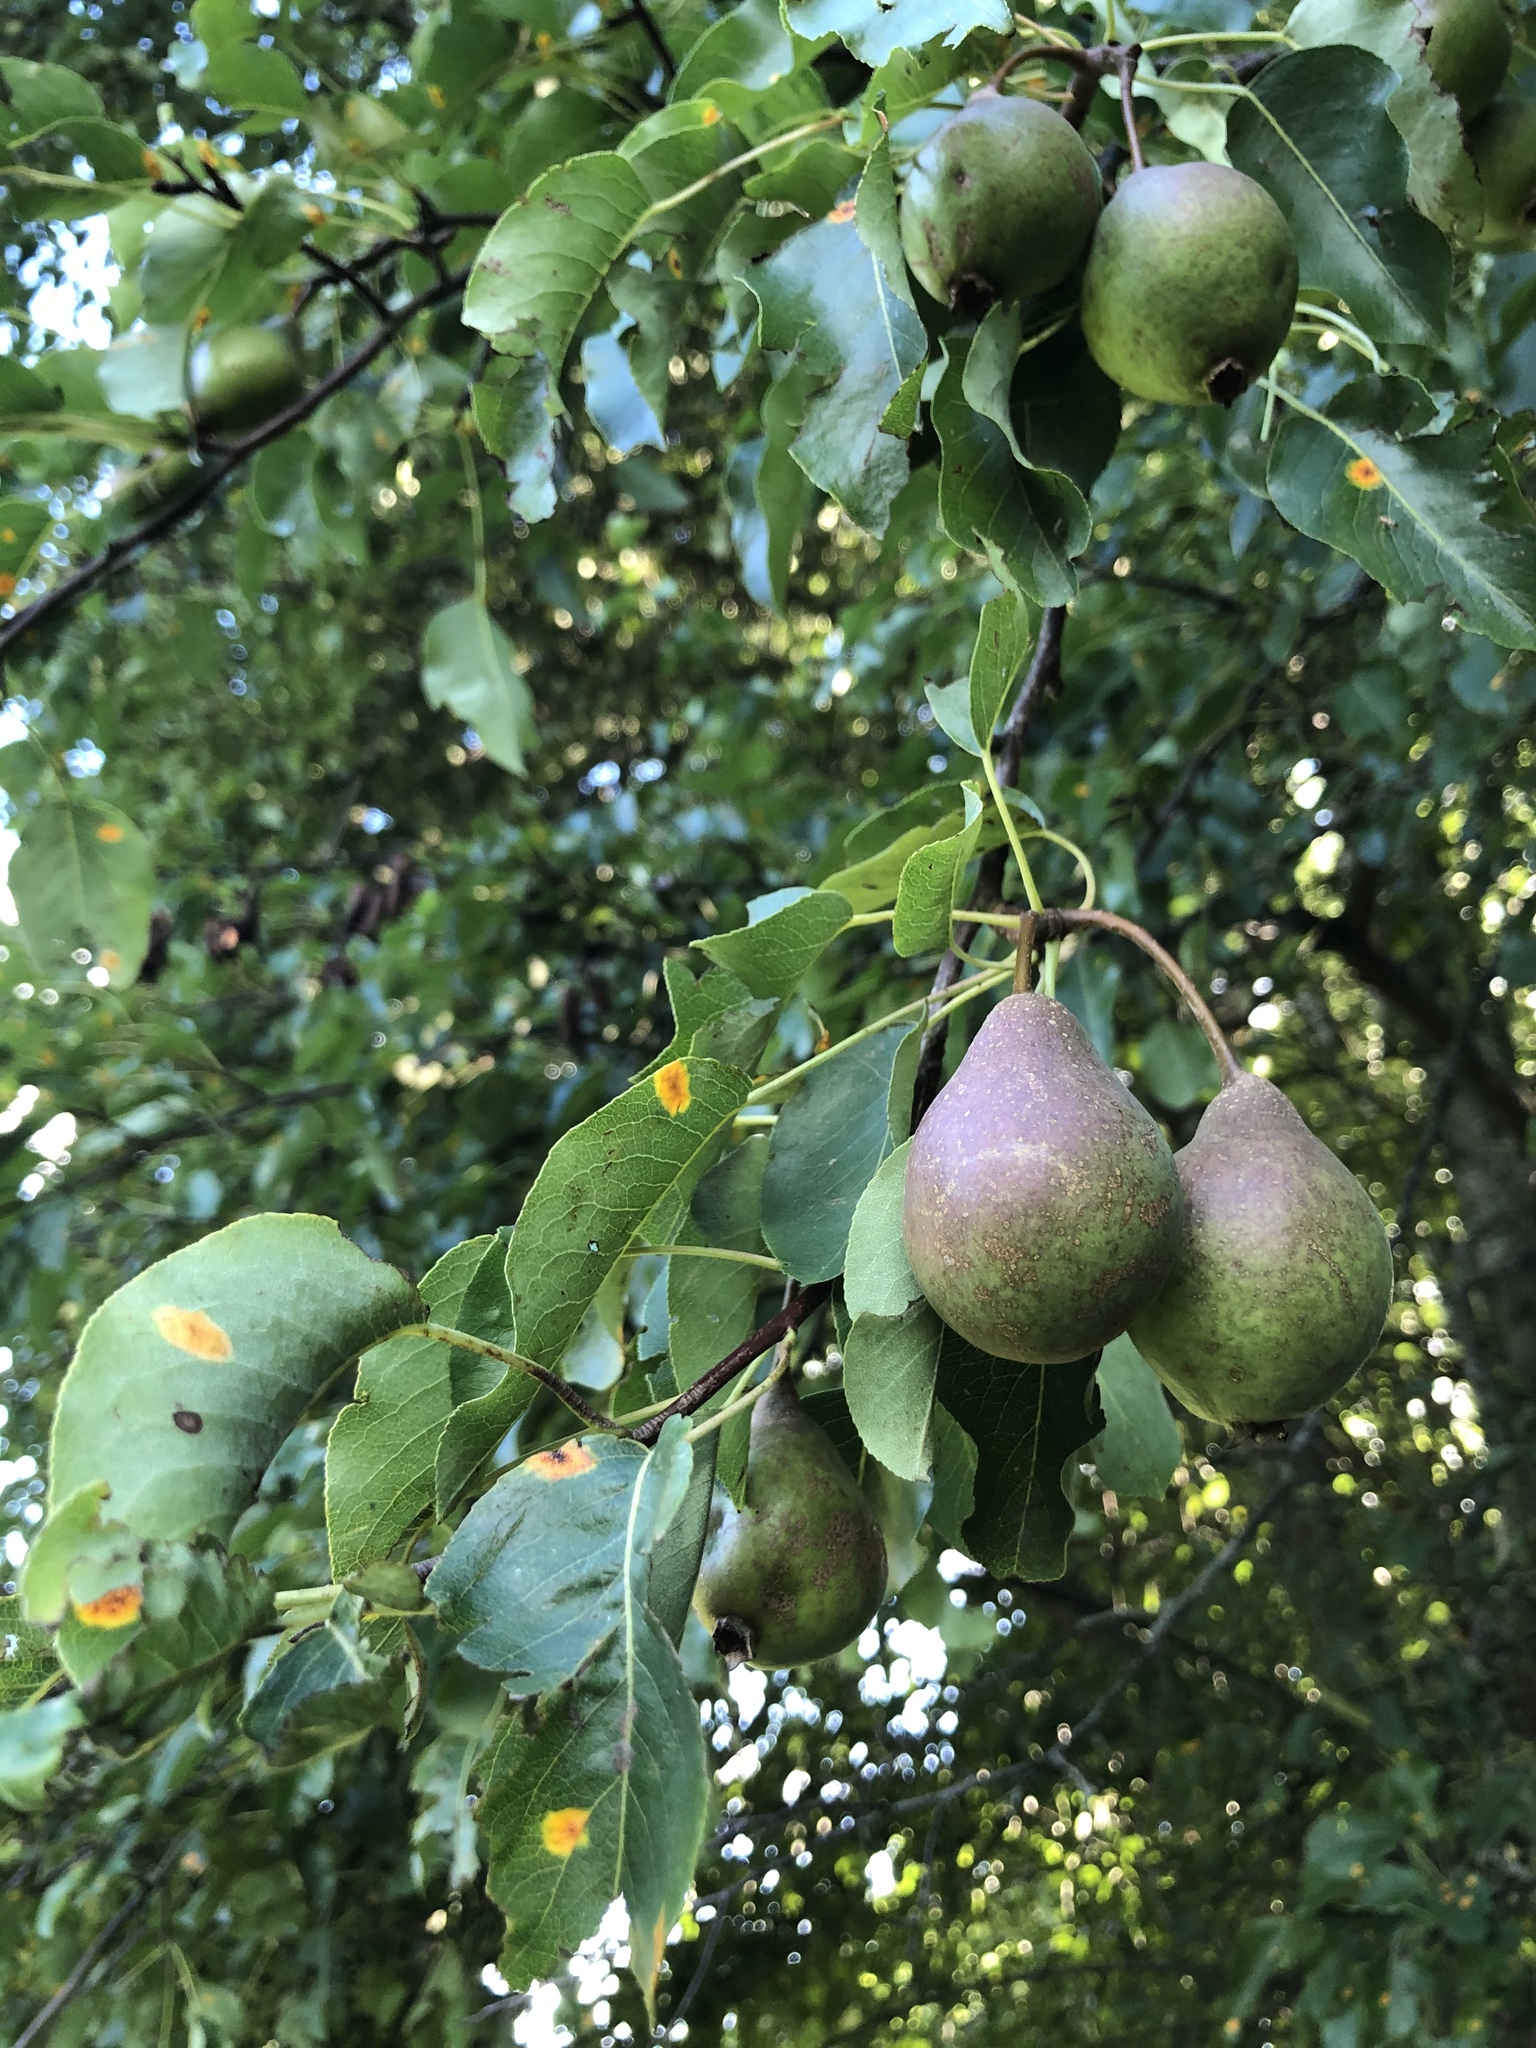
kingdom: Plantae
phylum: Tracheophyta
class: Magnoliopsida
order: Rosales
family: Rosaceae
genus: Pyrus
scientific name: Pyrus communis
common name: Pear
